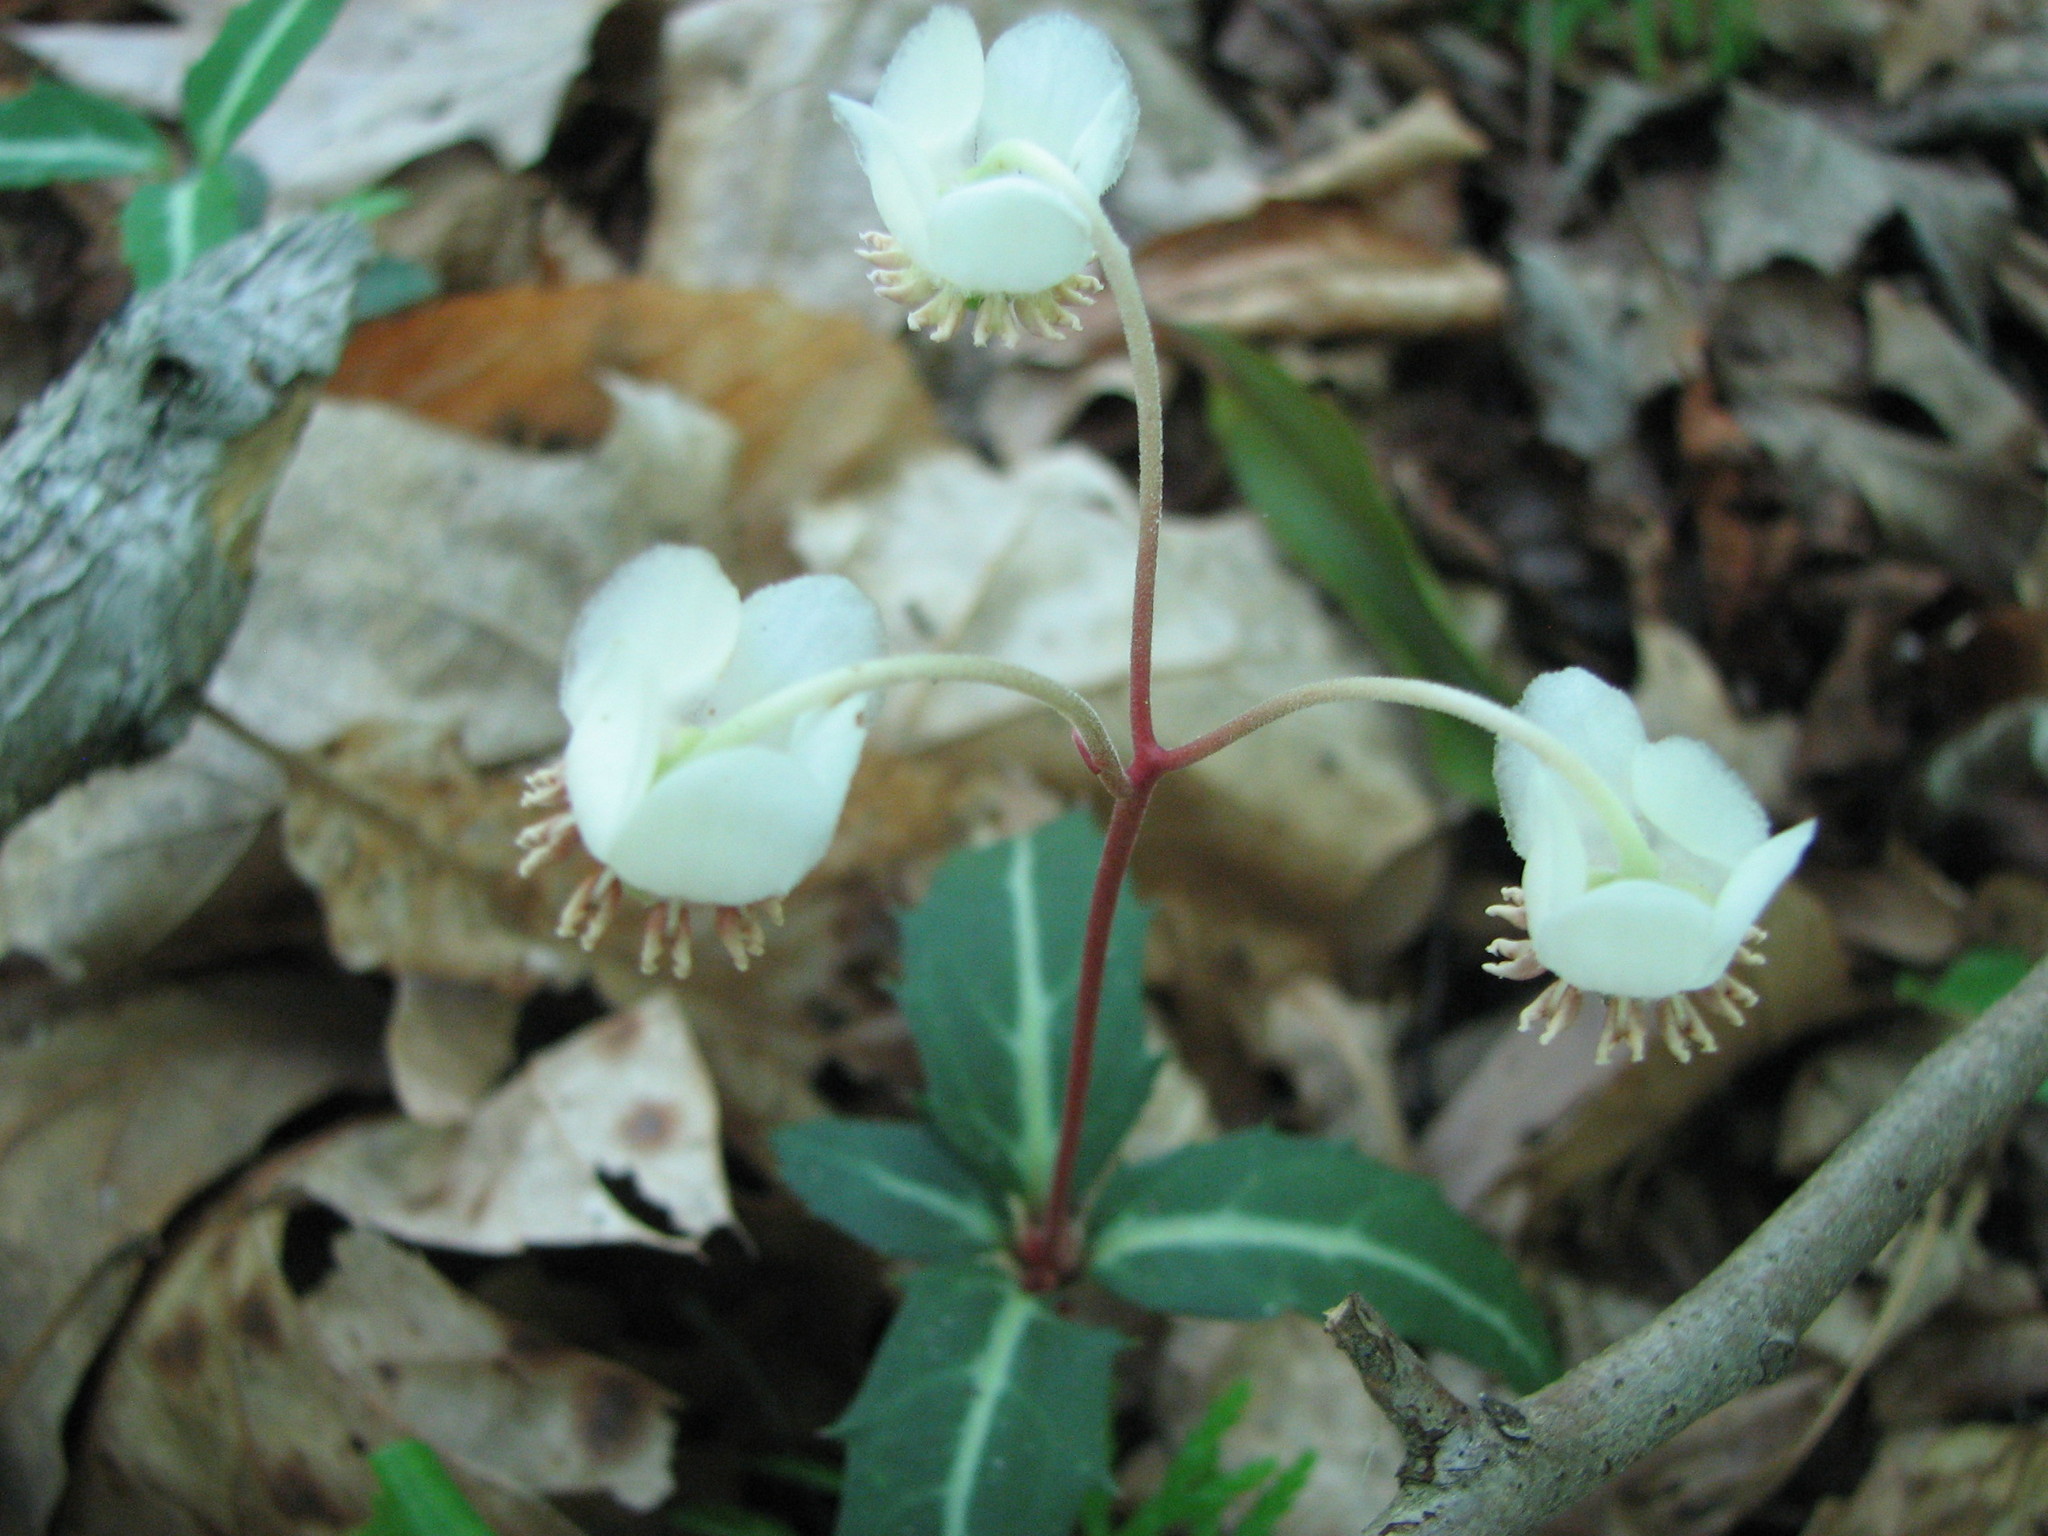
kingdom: Plantae
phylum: Tracheophyta
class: Magnoliopsida
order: Ericales
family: Ericaceae
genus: Chimaphila
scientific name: Chimaphila maculata
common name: Spotted pipsissewa
